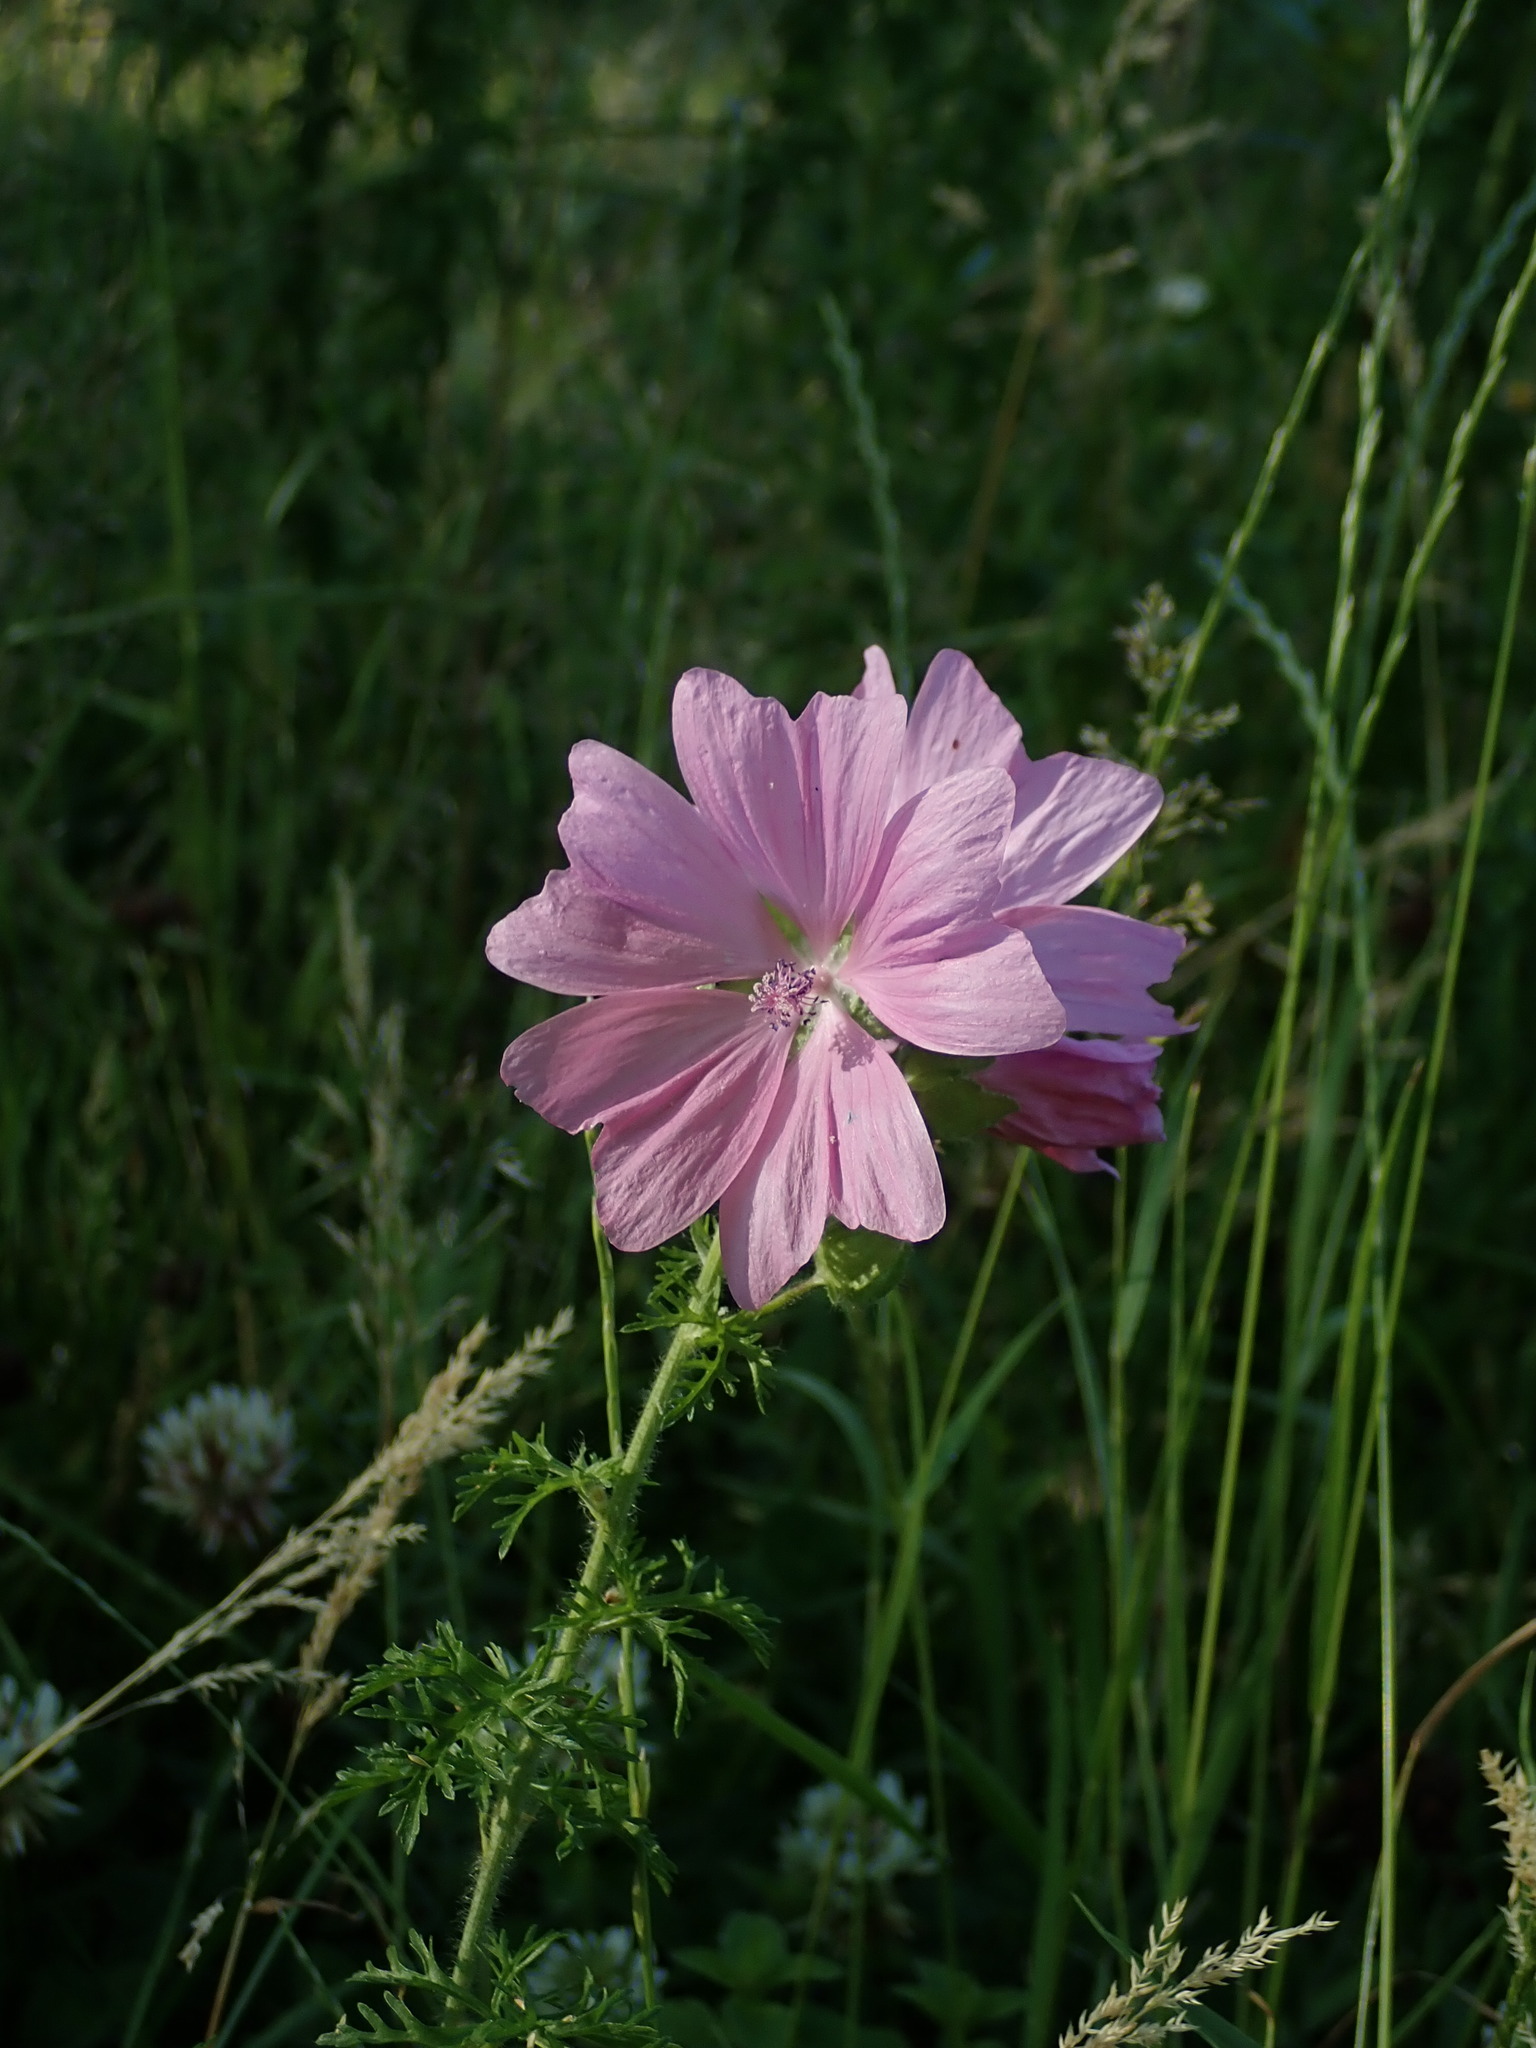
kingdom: Plantae
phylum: Tracheophyta
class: Magnoliopsida
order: Malvales
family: Malvaceae
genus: Malva
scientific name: Malva moschata
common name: Musk mallow
